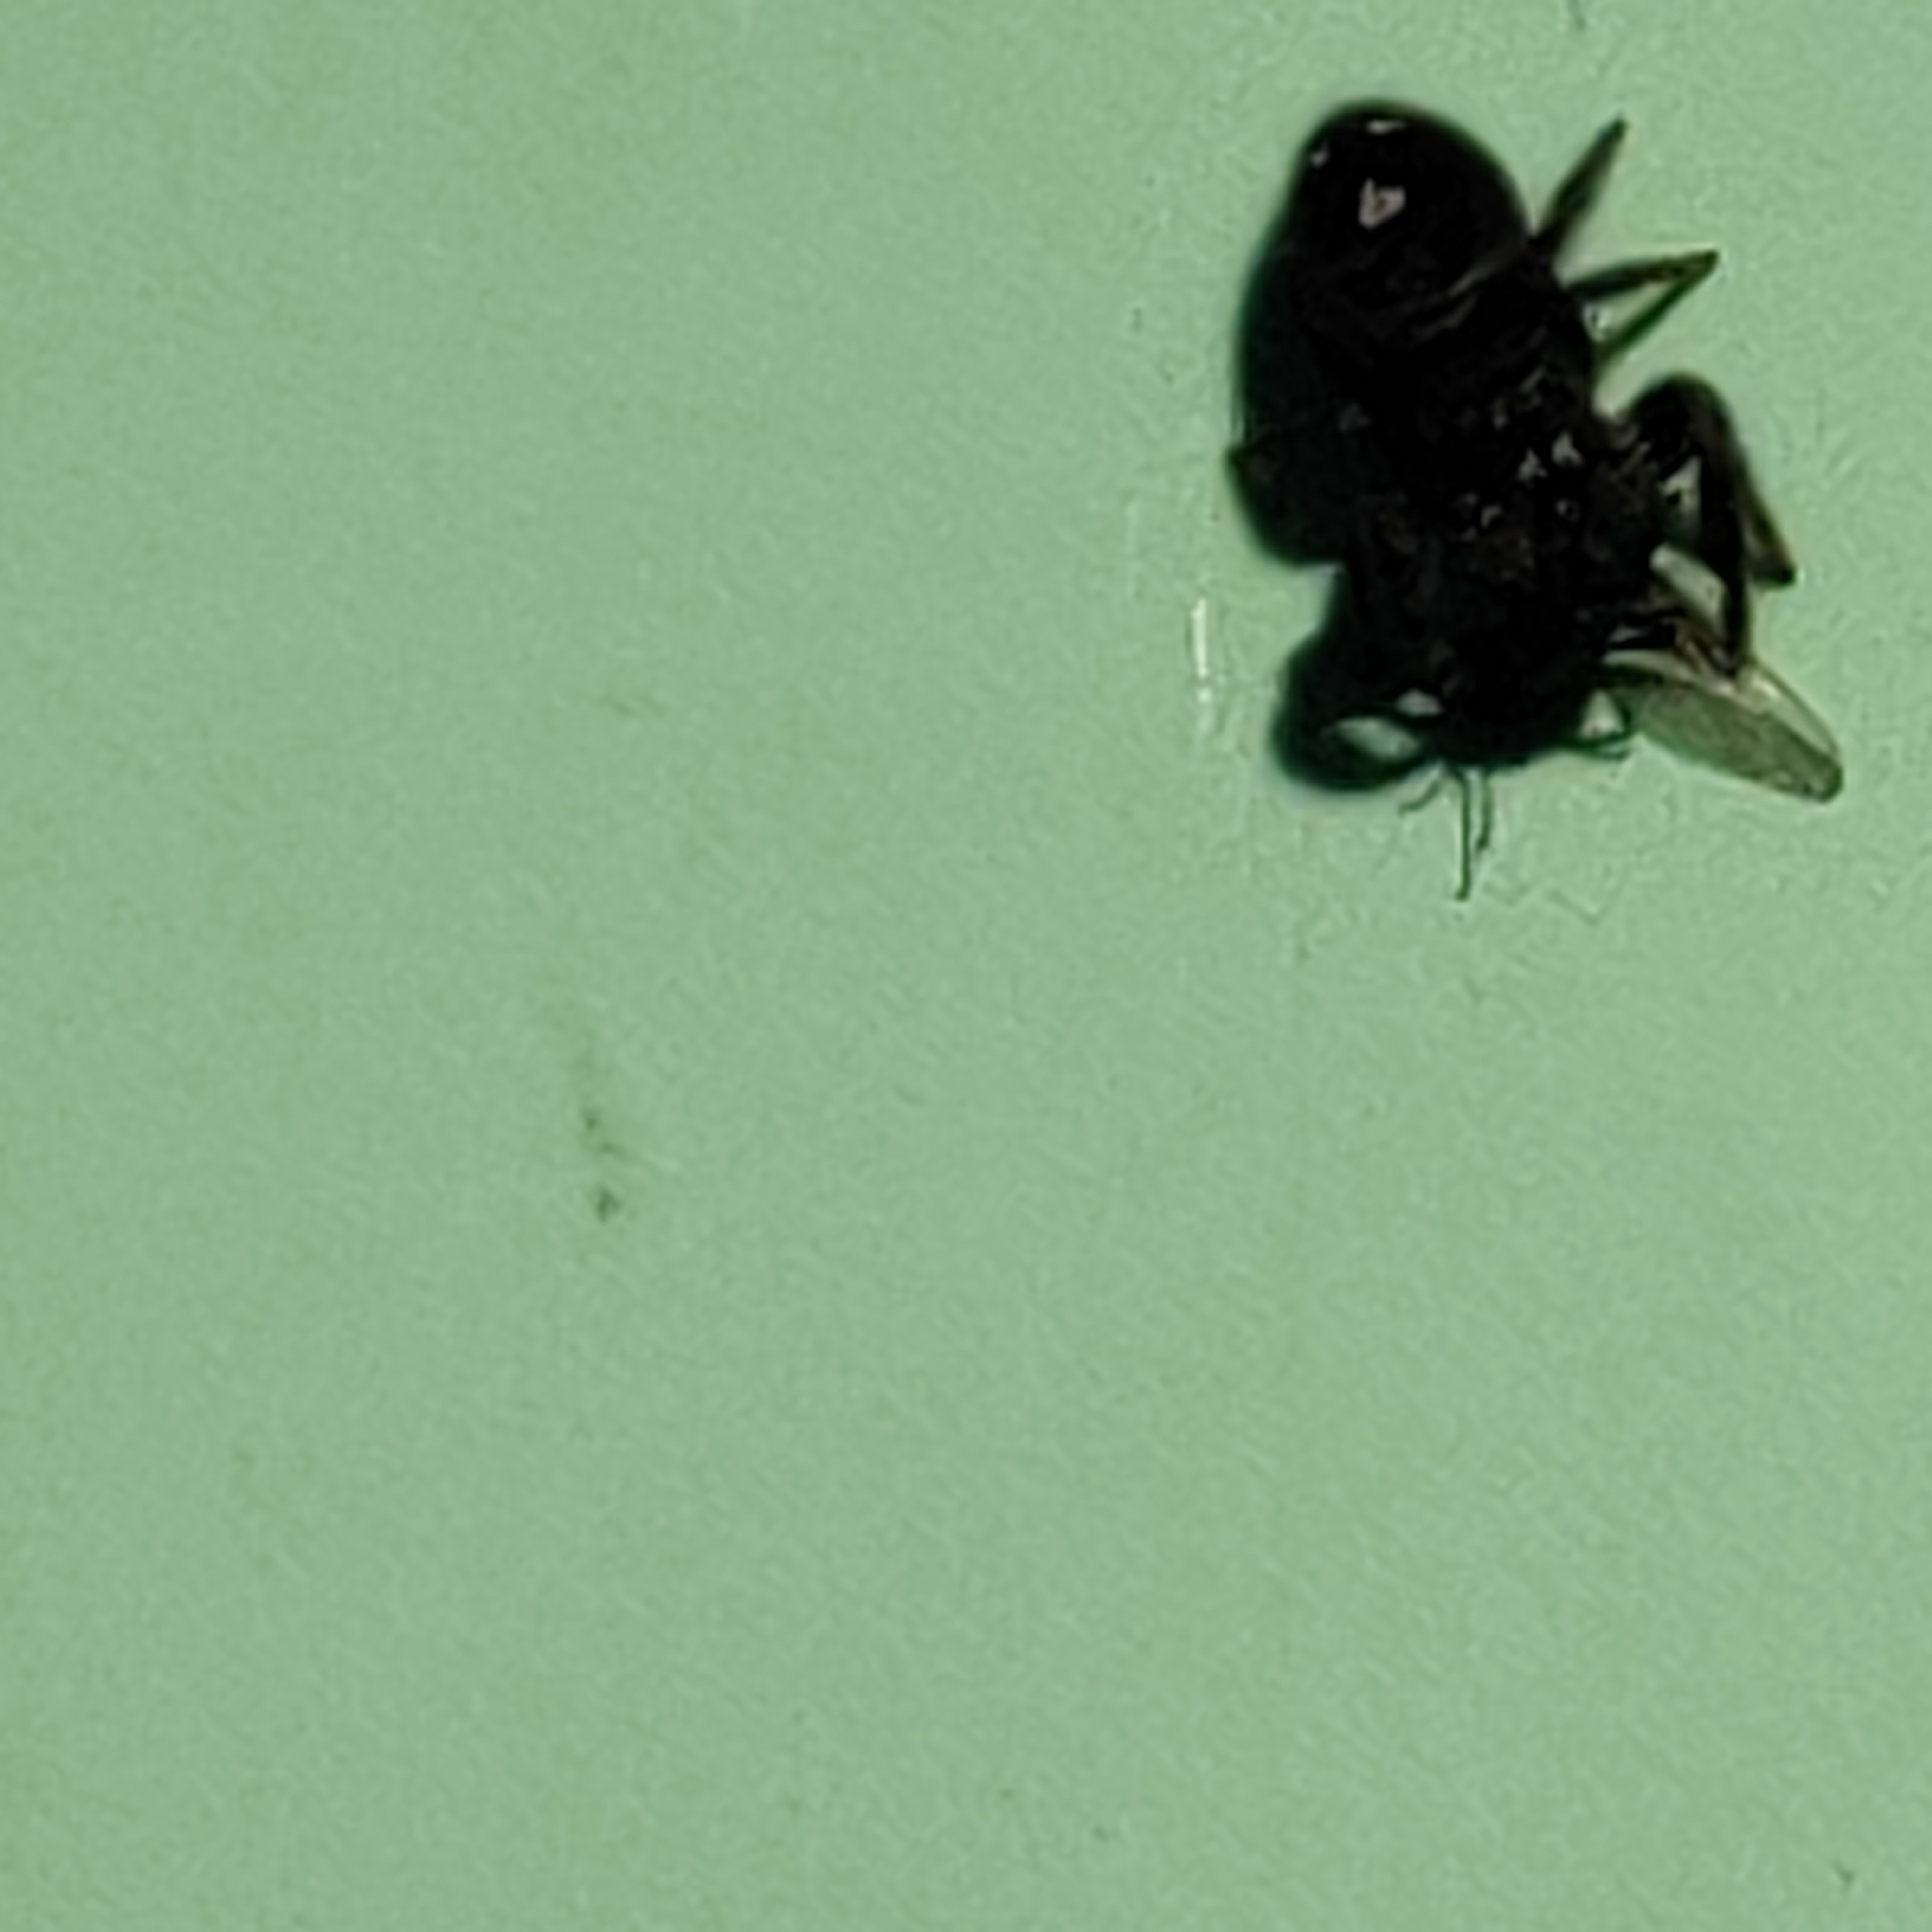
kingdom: Animalia
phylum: Arthropoda
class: Arachnida
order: Araneae
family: Salticidae
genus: Phidippus
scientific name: Phidippus audax
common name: Bold jumper
